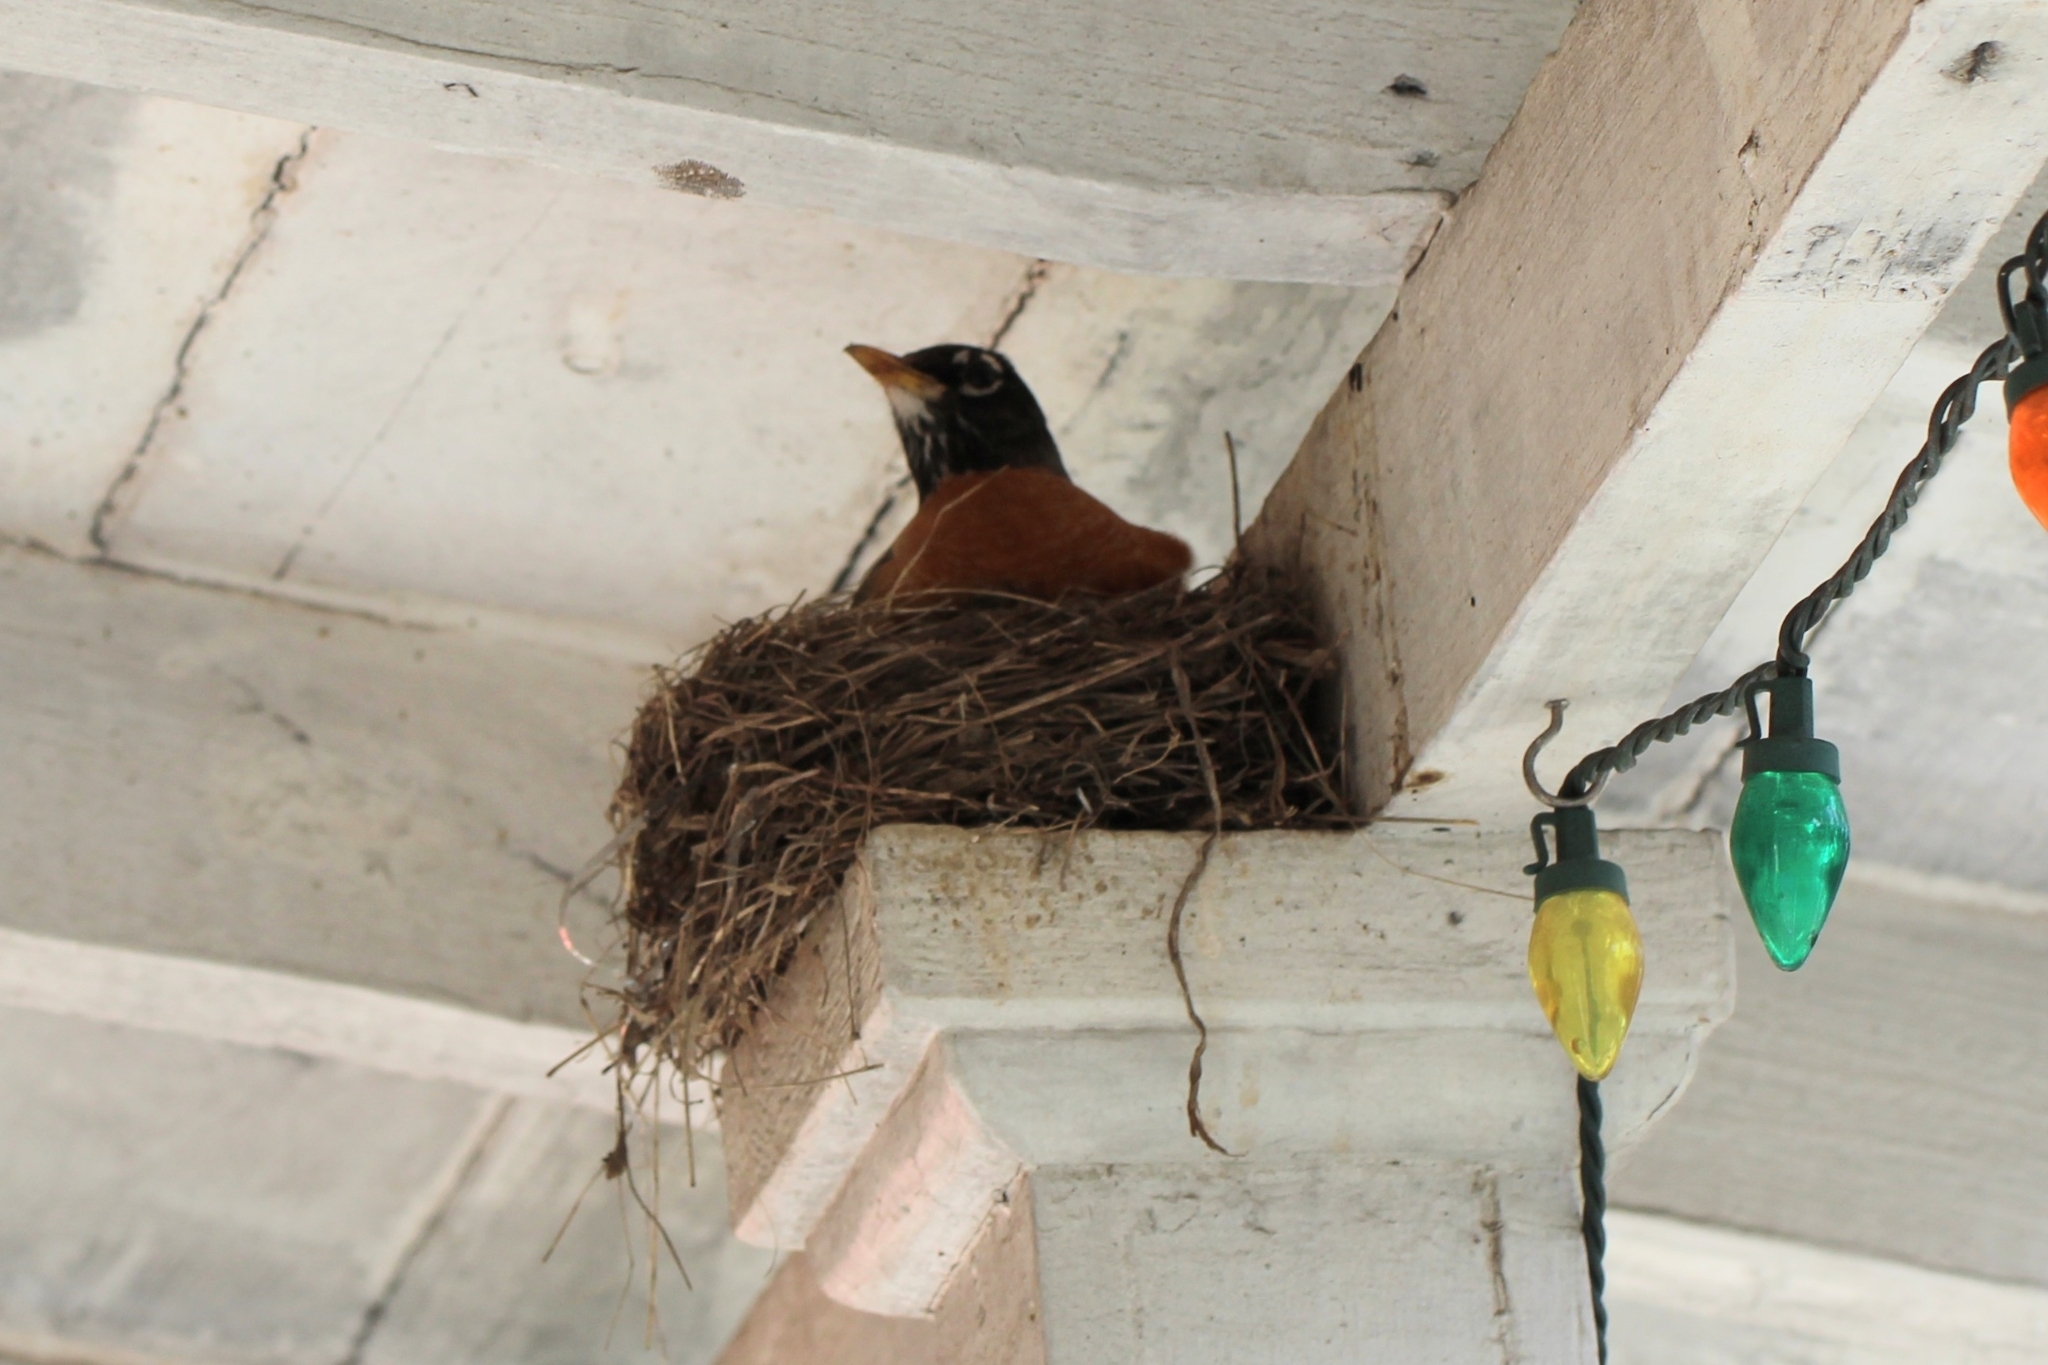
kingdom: Animalia
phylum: Chordata
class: Aves
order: Passeriformes
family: Turdidae
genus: Turdus
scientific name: Turdus migratorius
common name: American robin
